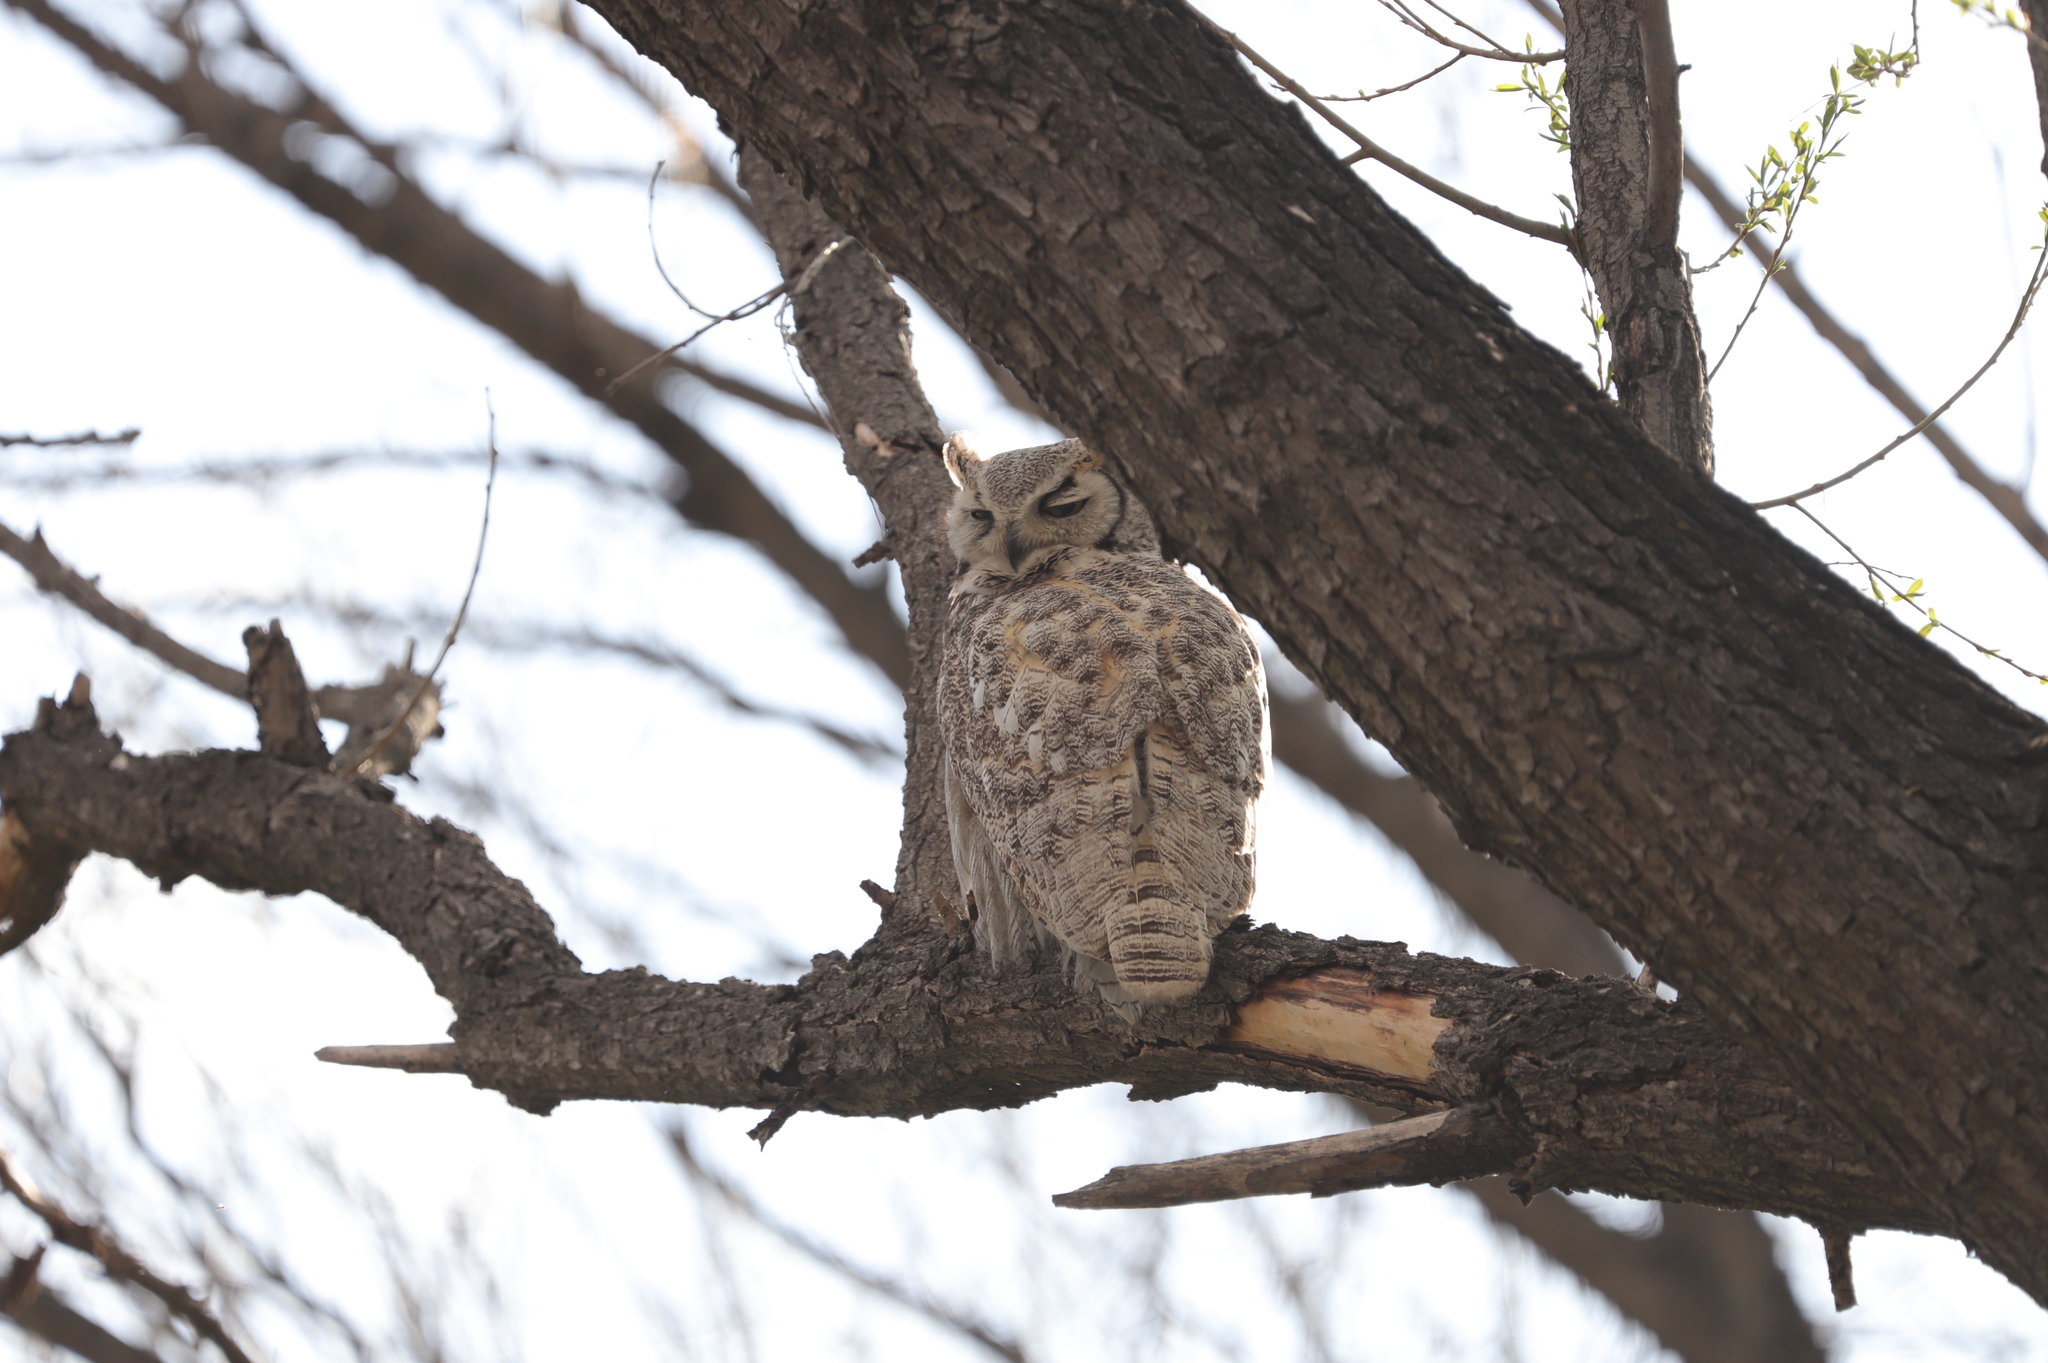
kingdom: Animalia
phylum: Chordata
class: Aves
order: Strigiformes
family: Strigidae
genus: Bubo
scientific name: Bubo virginianus
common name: Great horned owl
